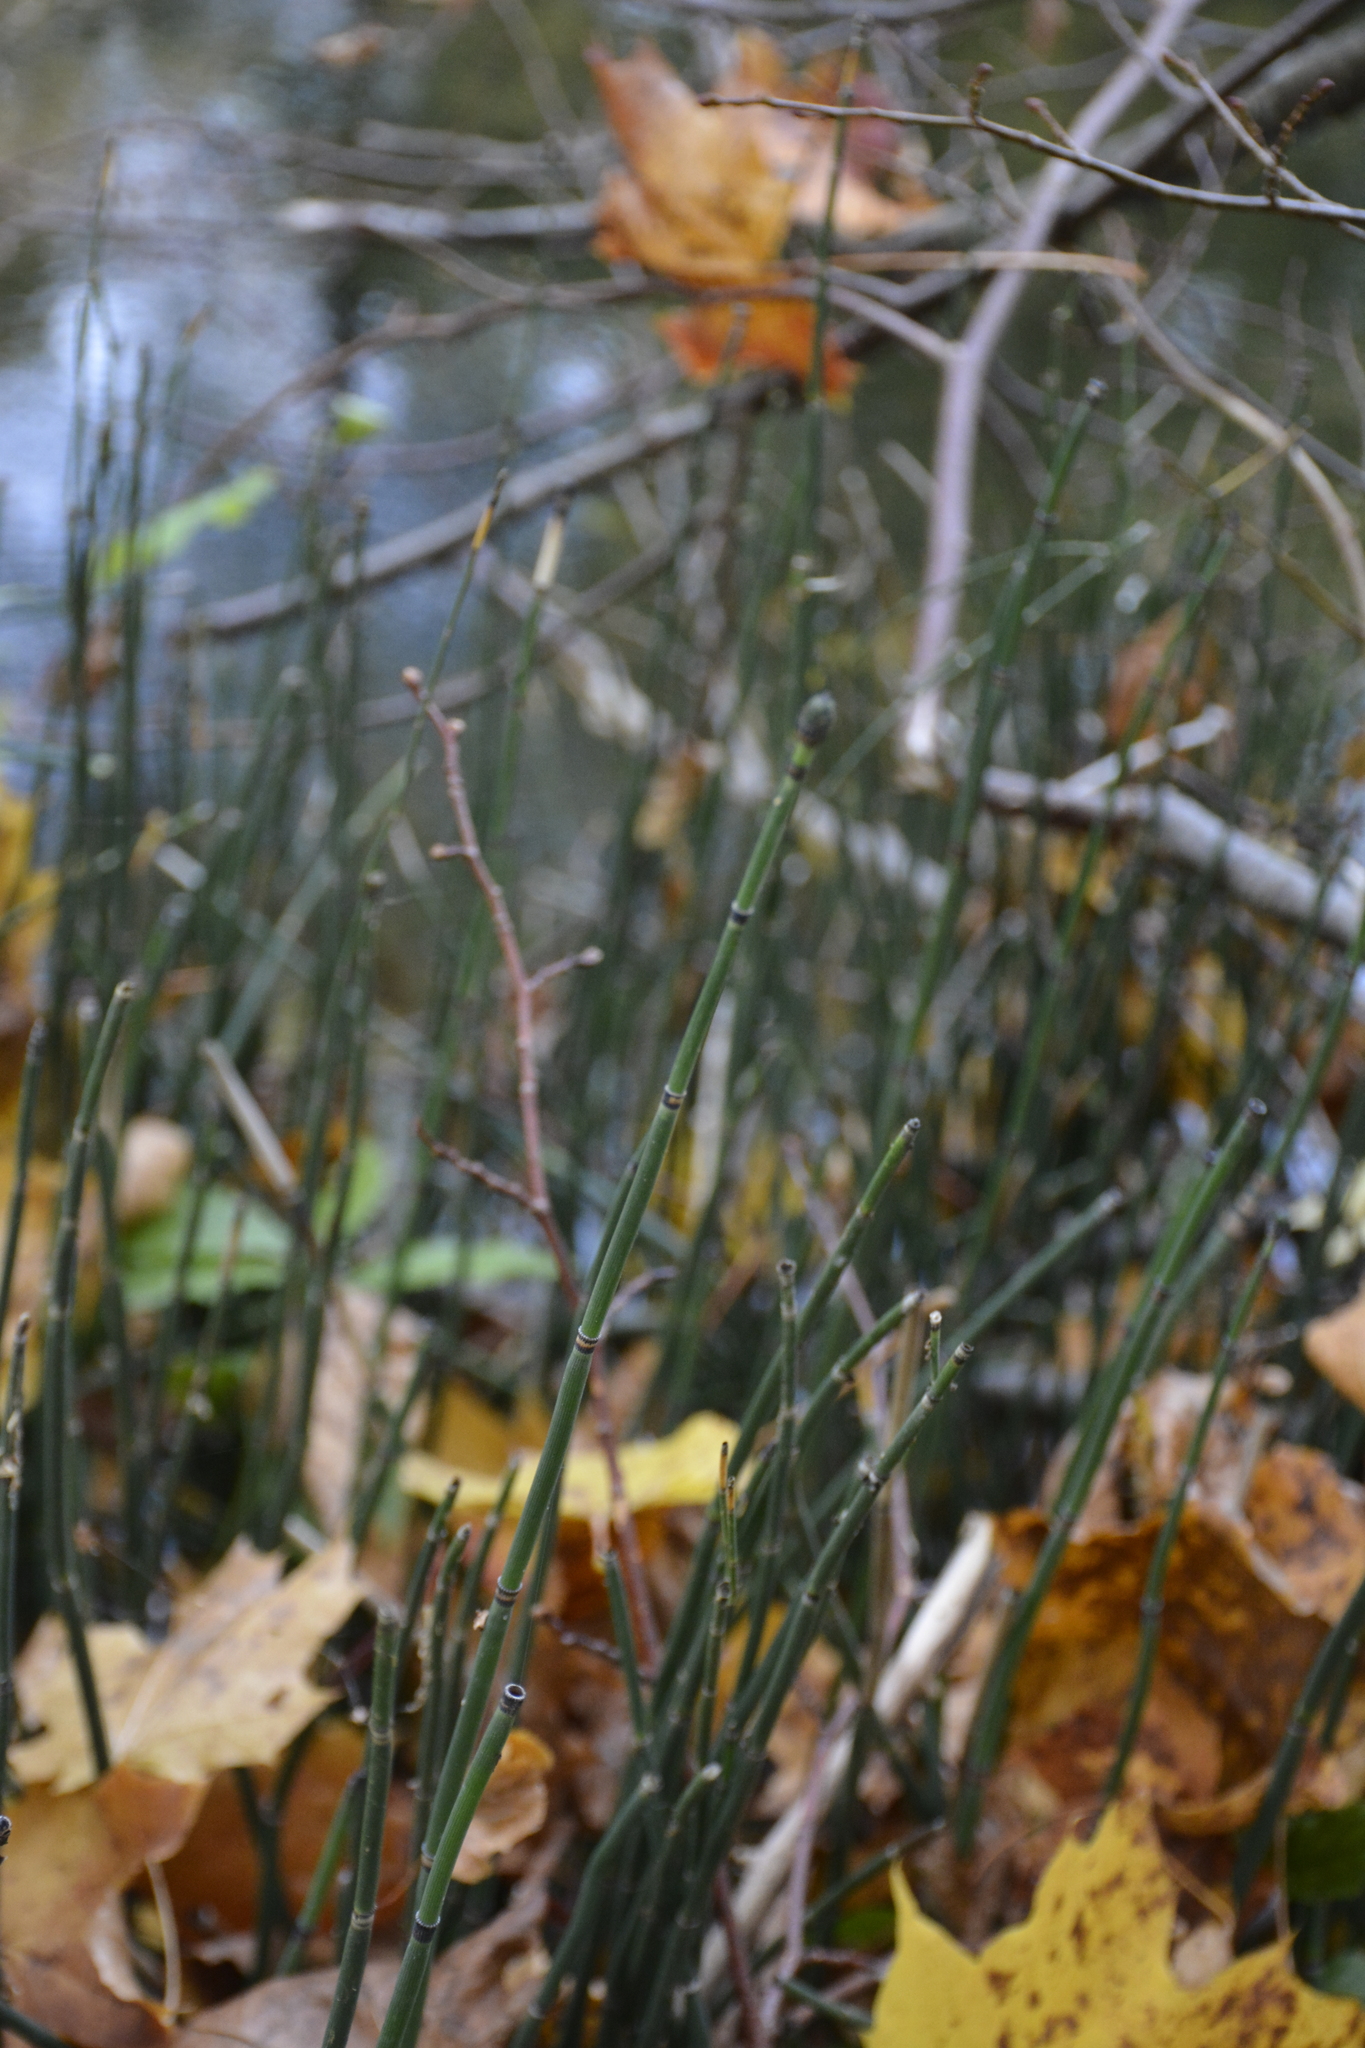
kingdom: Plantae
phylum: Tracheophyta
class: Polypodiopsida
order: Equisetales
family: Equisetaceae
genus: Equisetum
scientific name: Equisetum hyemale
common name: Rough horsetail
